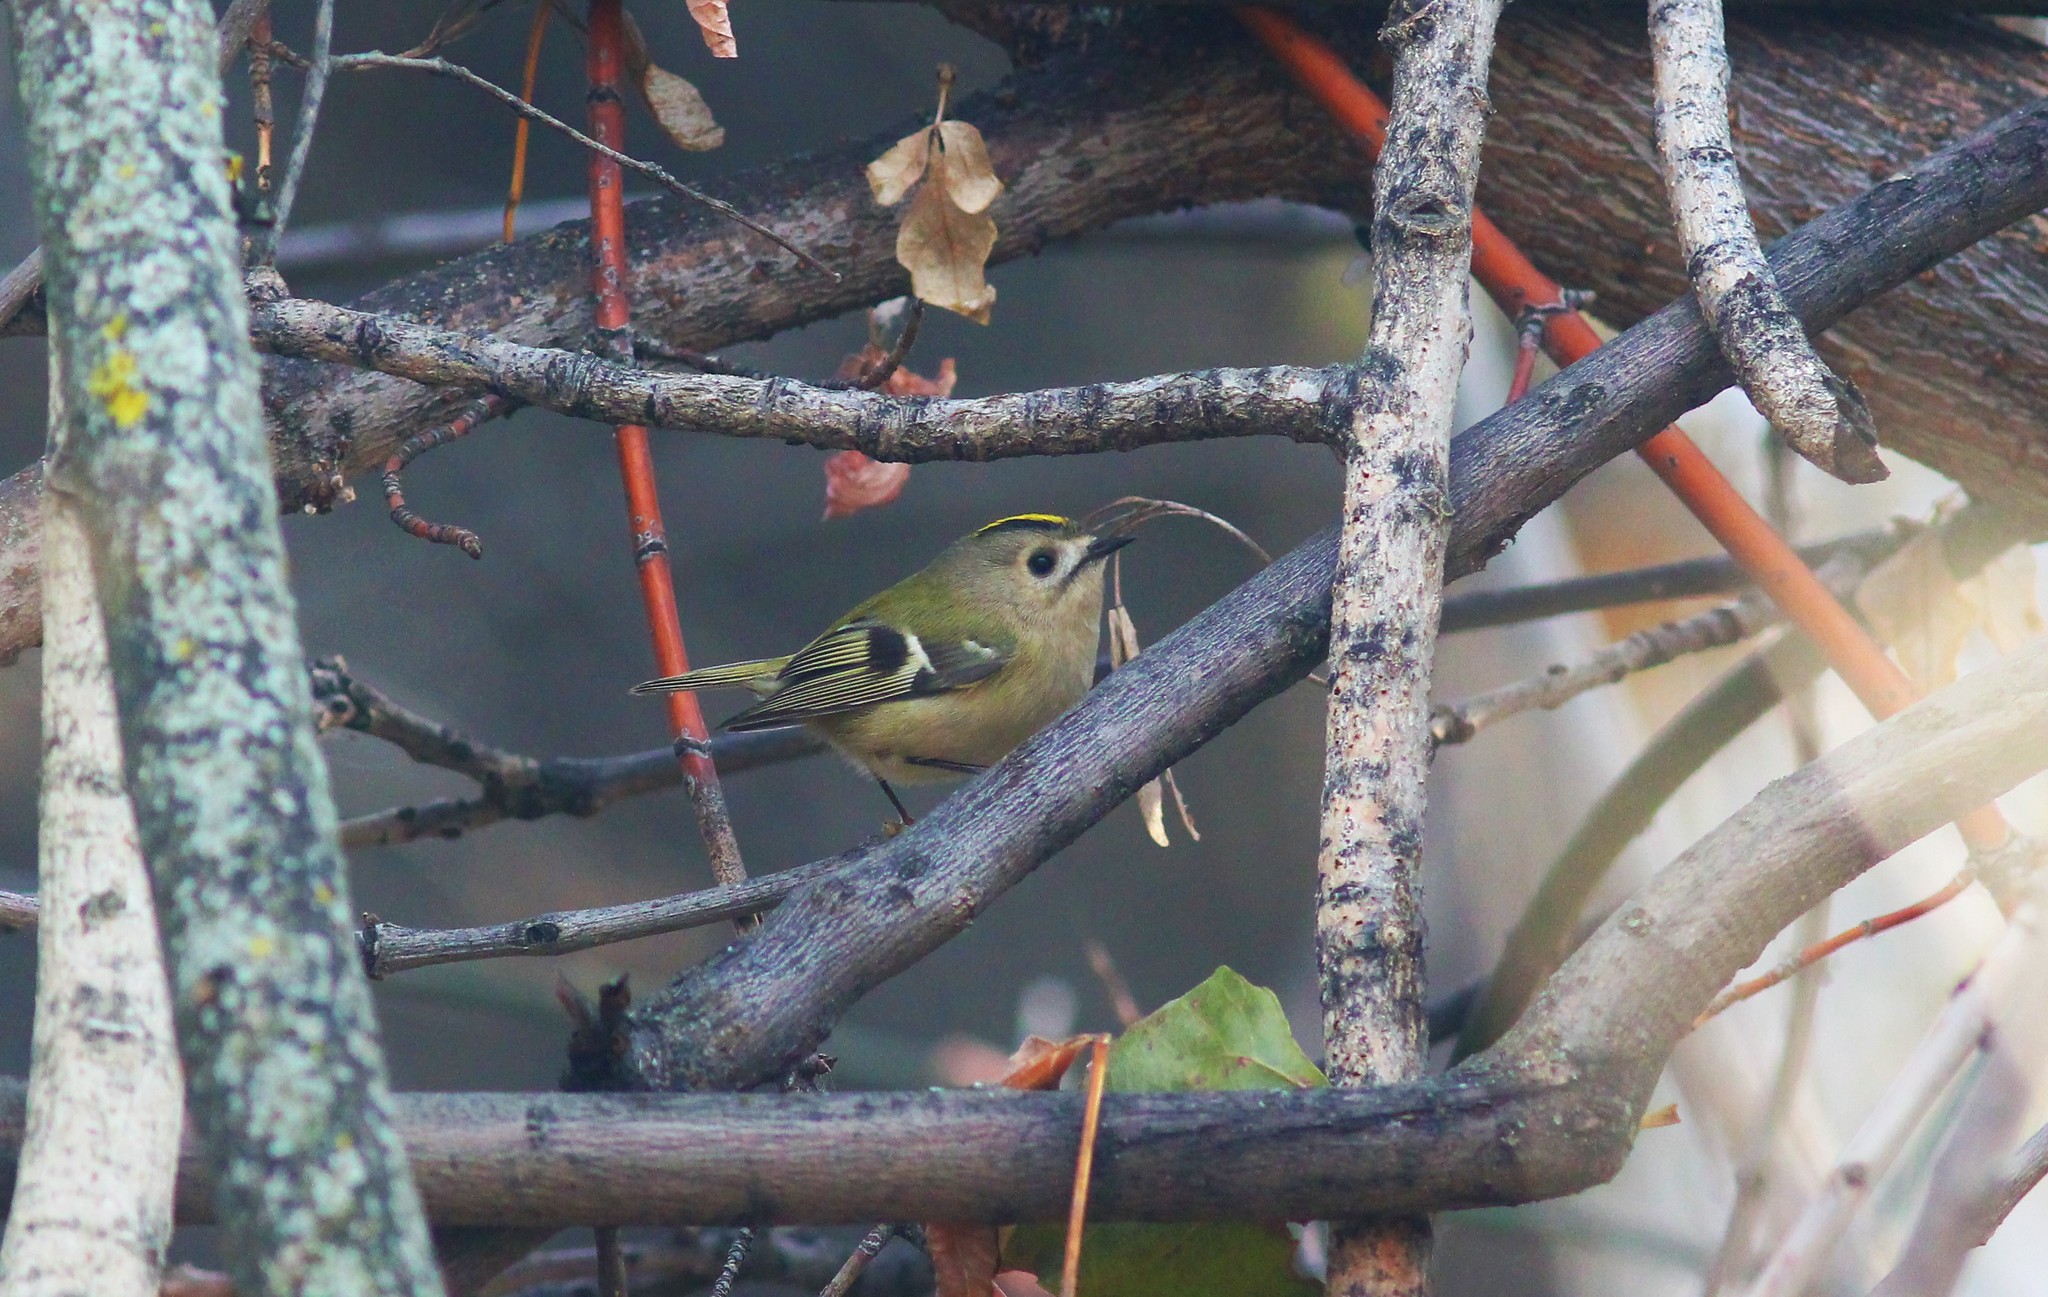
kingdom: Animalia
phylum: Chordata
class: Aves
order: Passeriformes
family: Regulidae
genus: Regulus
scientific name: Regulus regulus
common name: Goldcrest
